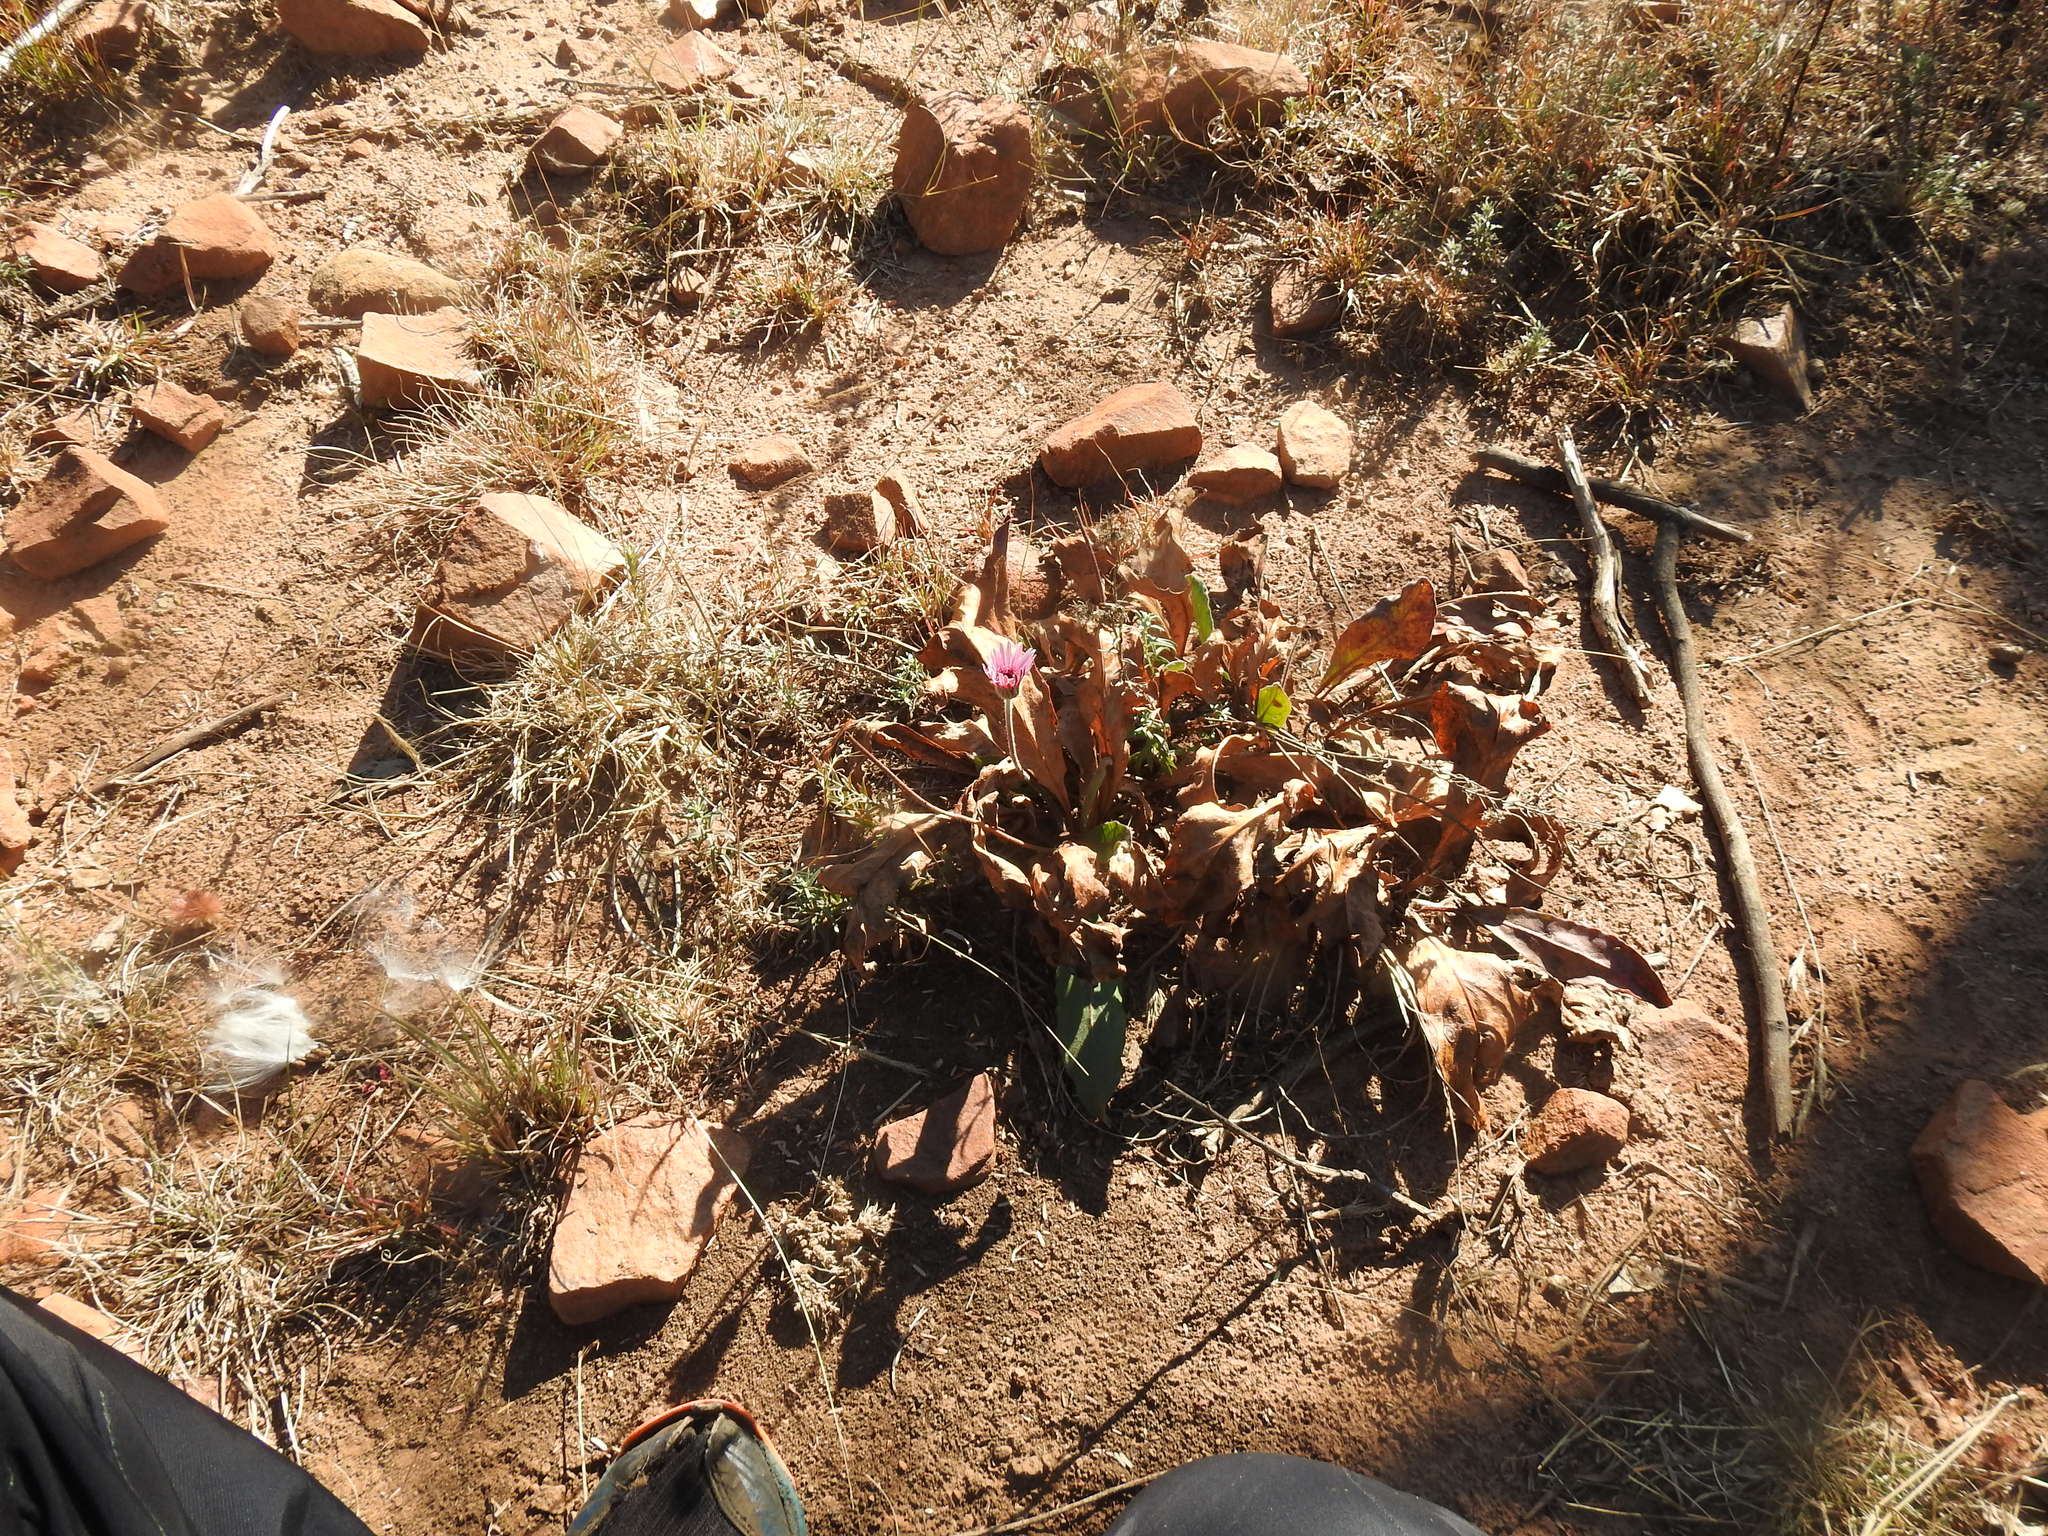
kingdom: Plantae
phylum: Tracheophyta
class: Magnoliopsida
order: Asterales
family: Asteraceae
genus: Gerbera
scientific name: Gerbera viridifolia
